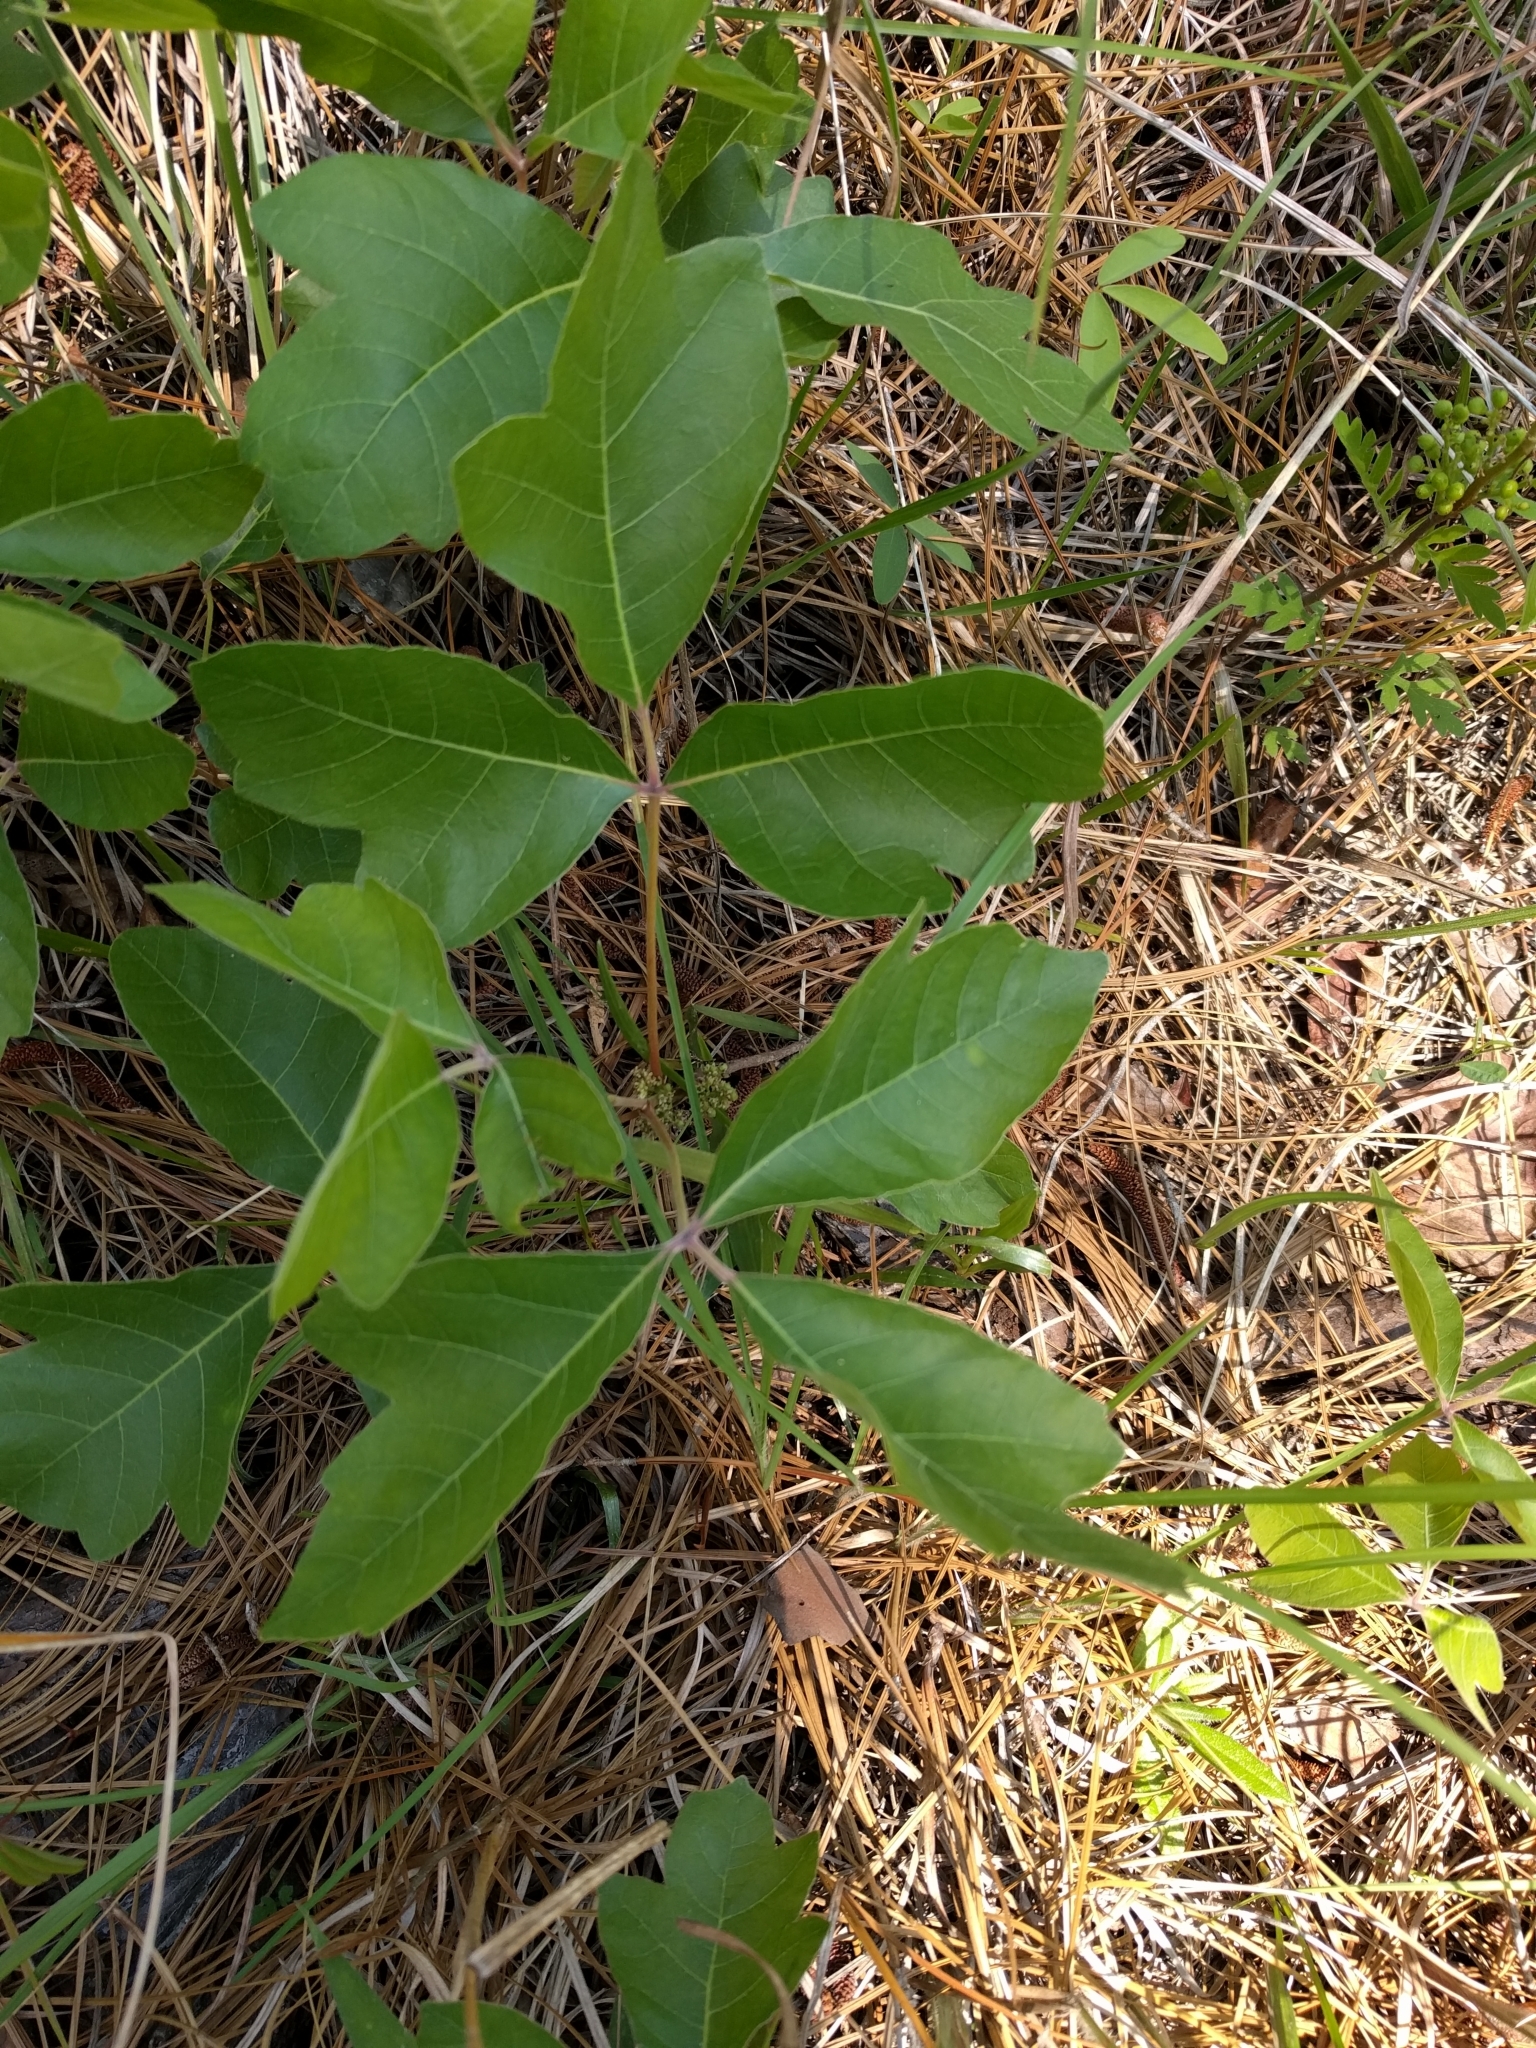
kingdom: Plantae
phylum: Tracheophyta
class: Magnoliopsida
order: Sapindales
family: Anacardiaceae
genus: Toxicodendron
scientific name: Toxicodendron radicans
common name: Poison ivy
